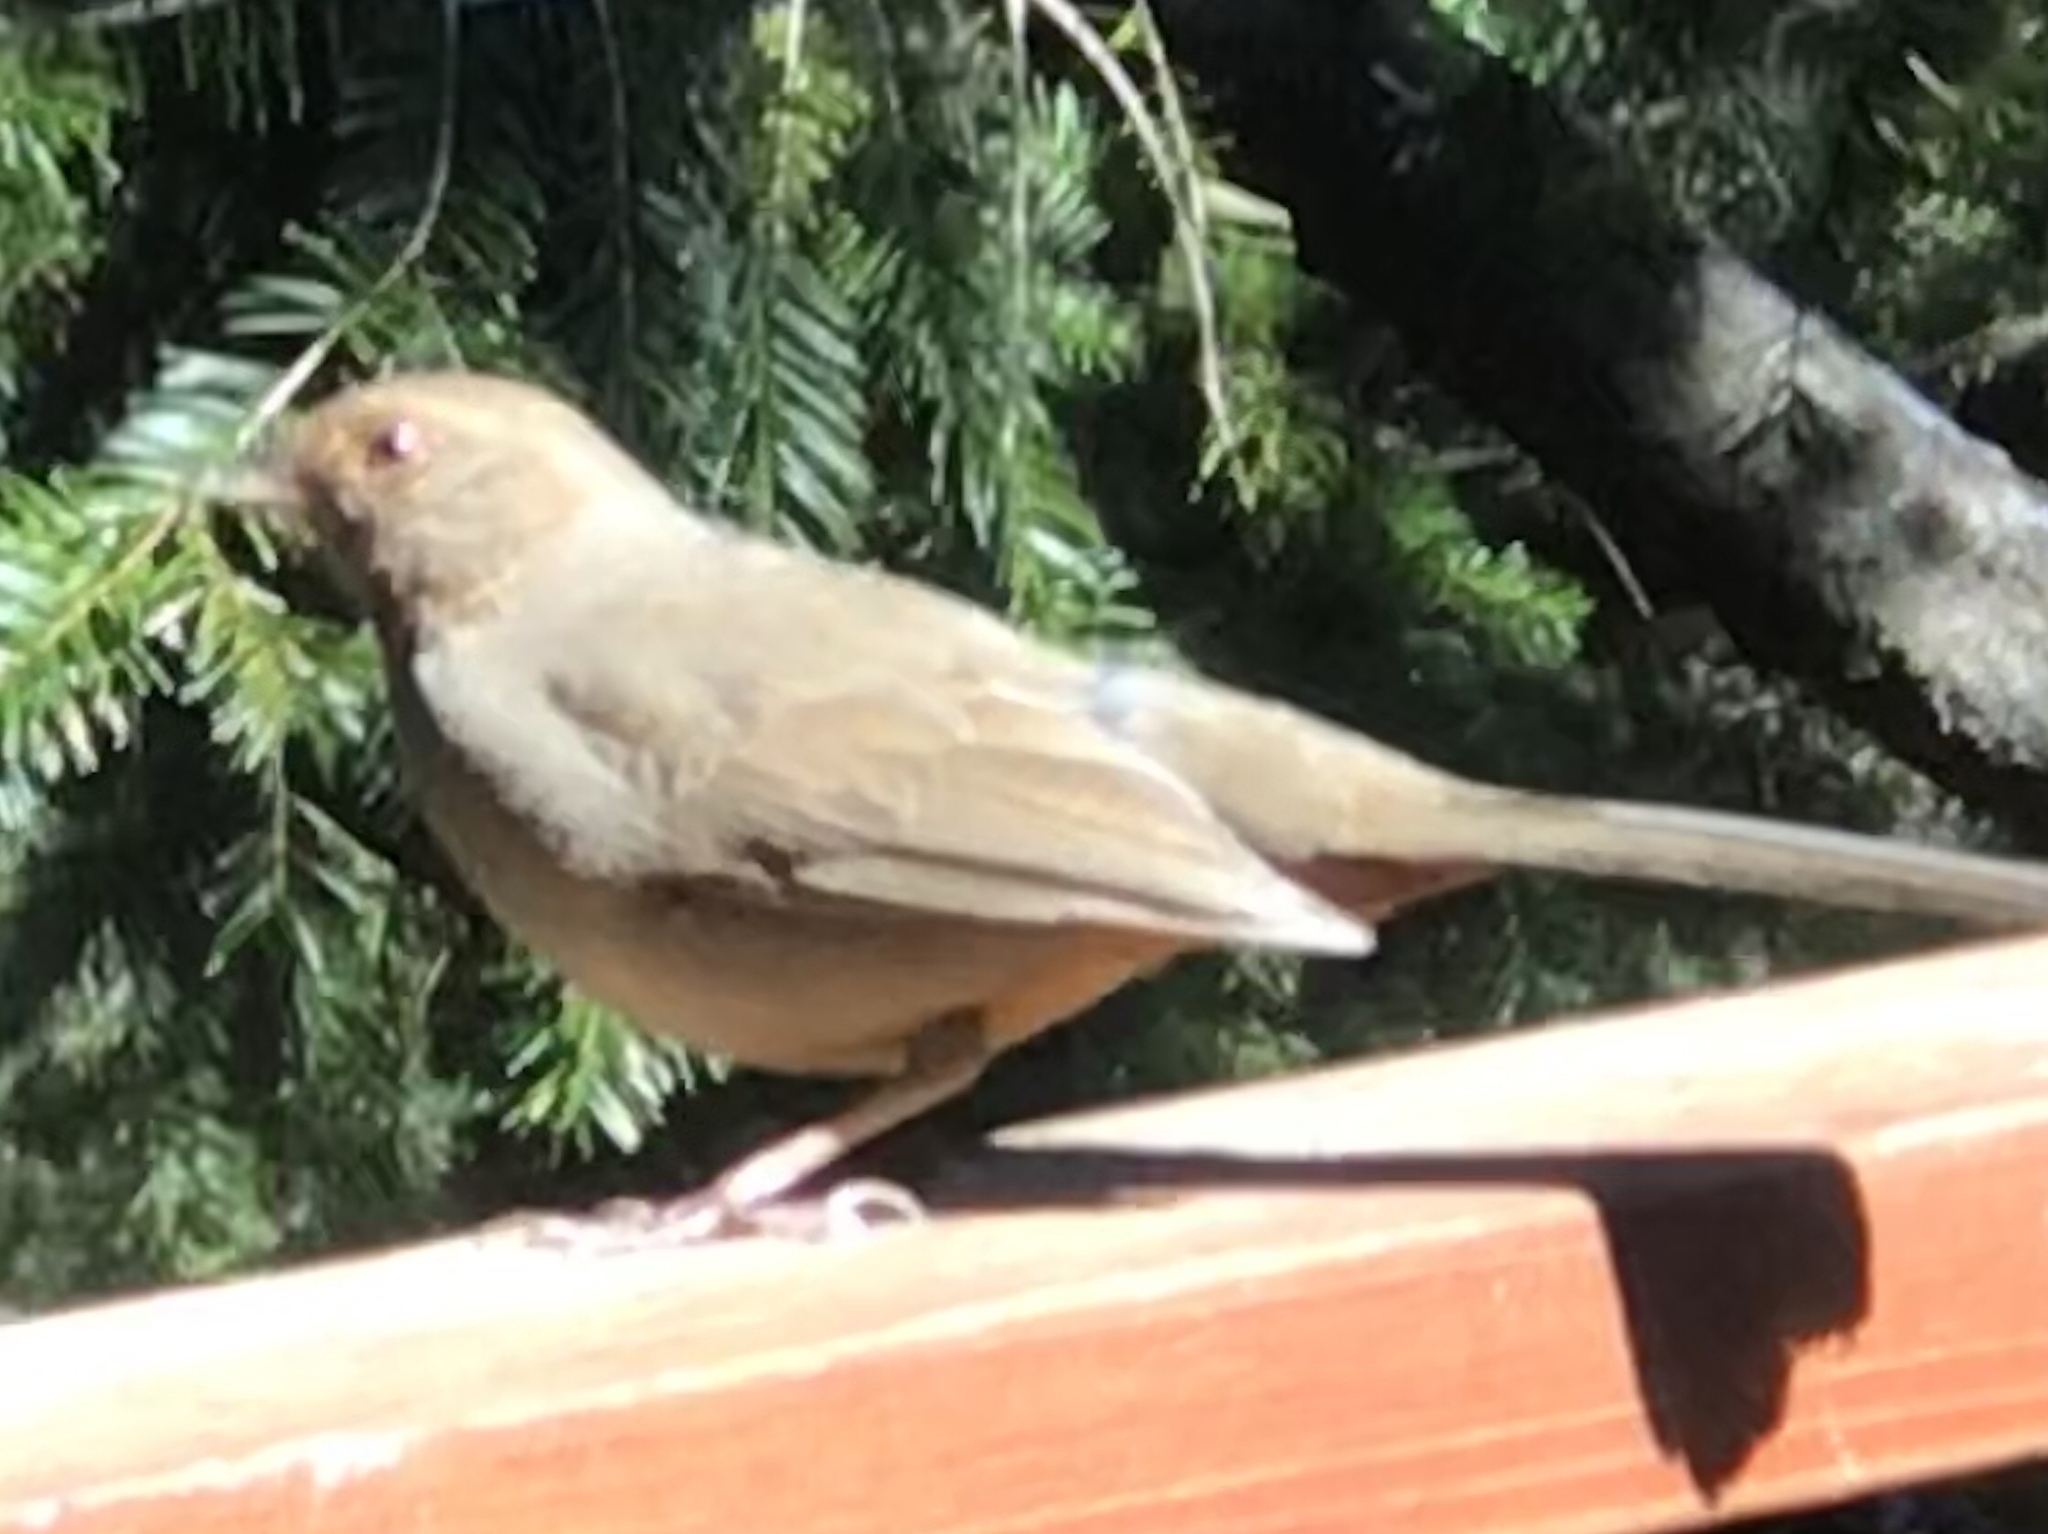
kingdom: Animalia
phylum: Chordata
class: Aves
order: Passeriformes
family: Passerellidae
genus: Melozone
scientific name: Melozone crissalis
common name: California towhee
